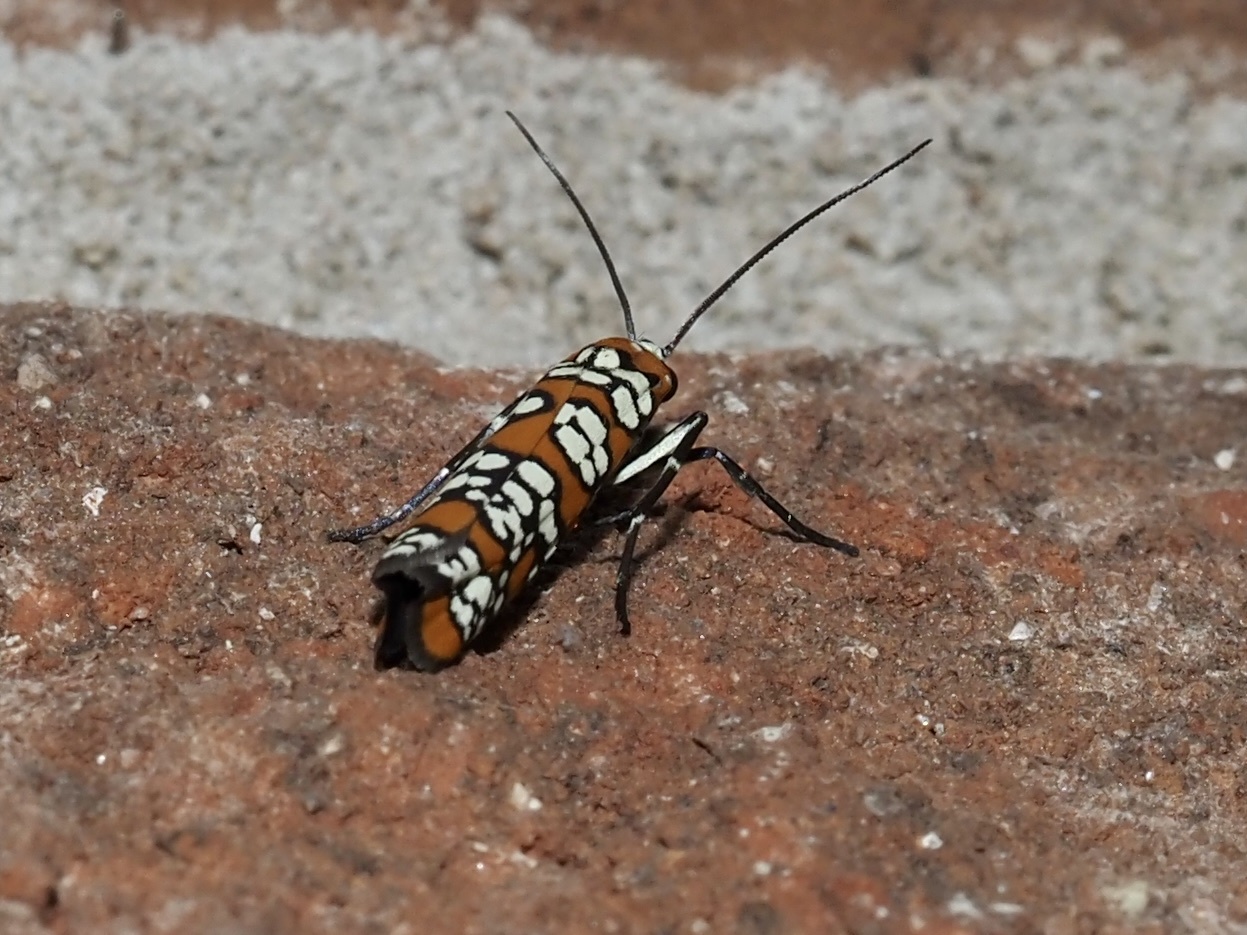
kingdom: Animalia
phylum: Arthropoda
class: Insecta
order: Lepidoptera
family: Attevidae
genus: Atteva
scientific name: Atteva punctella
